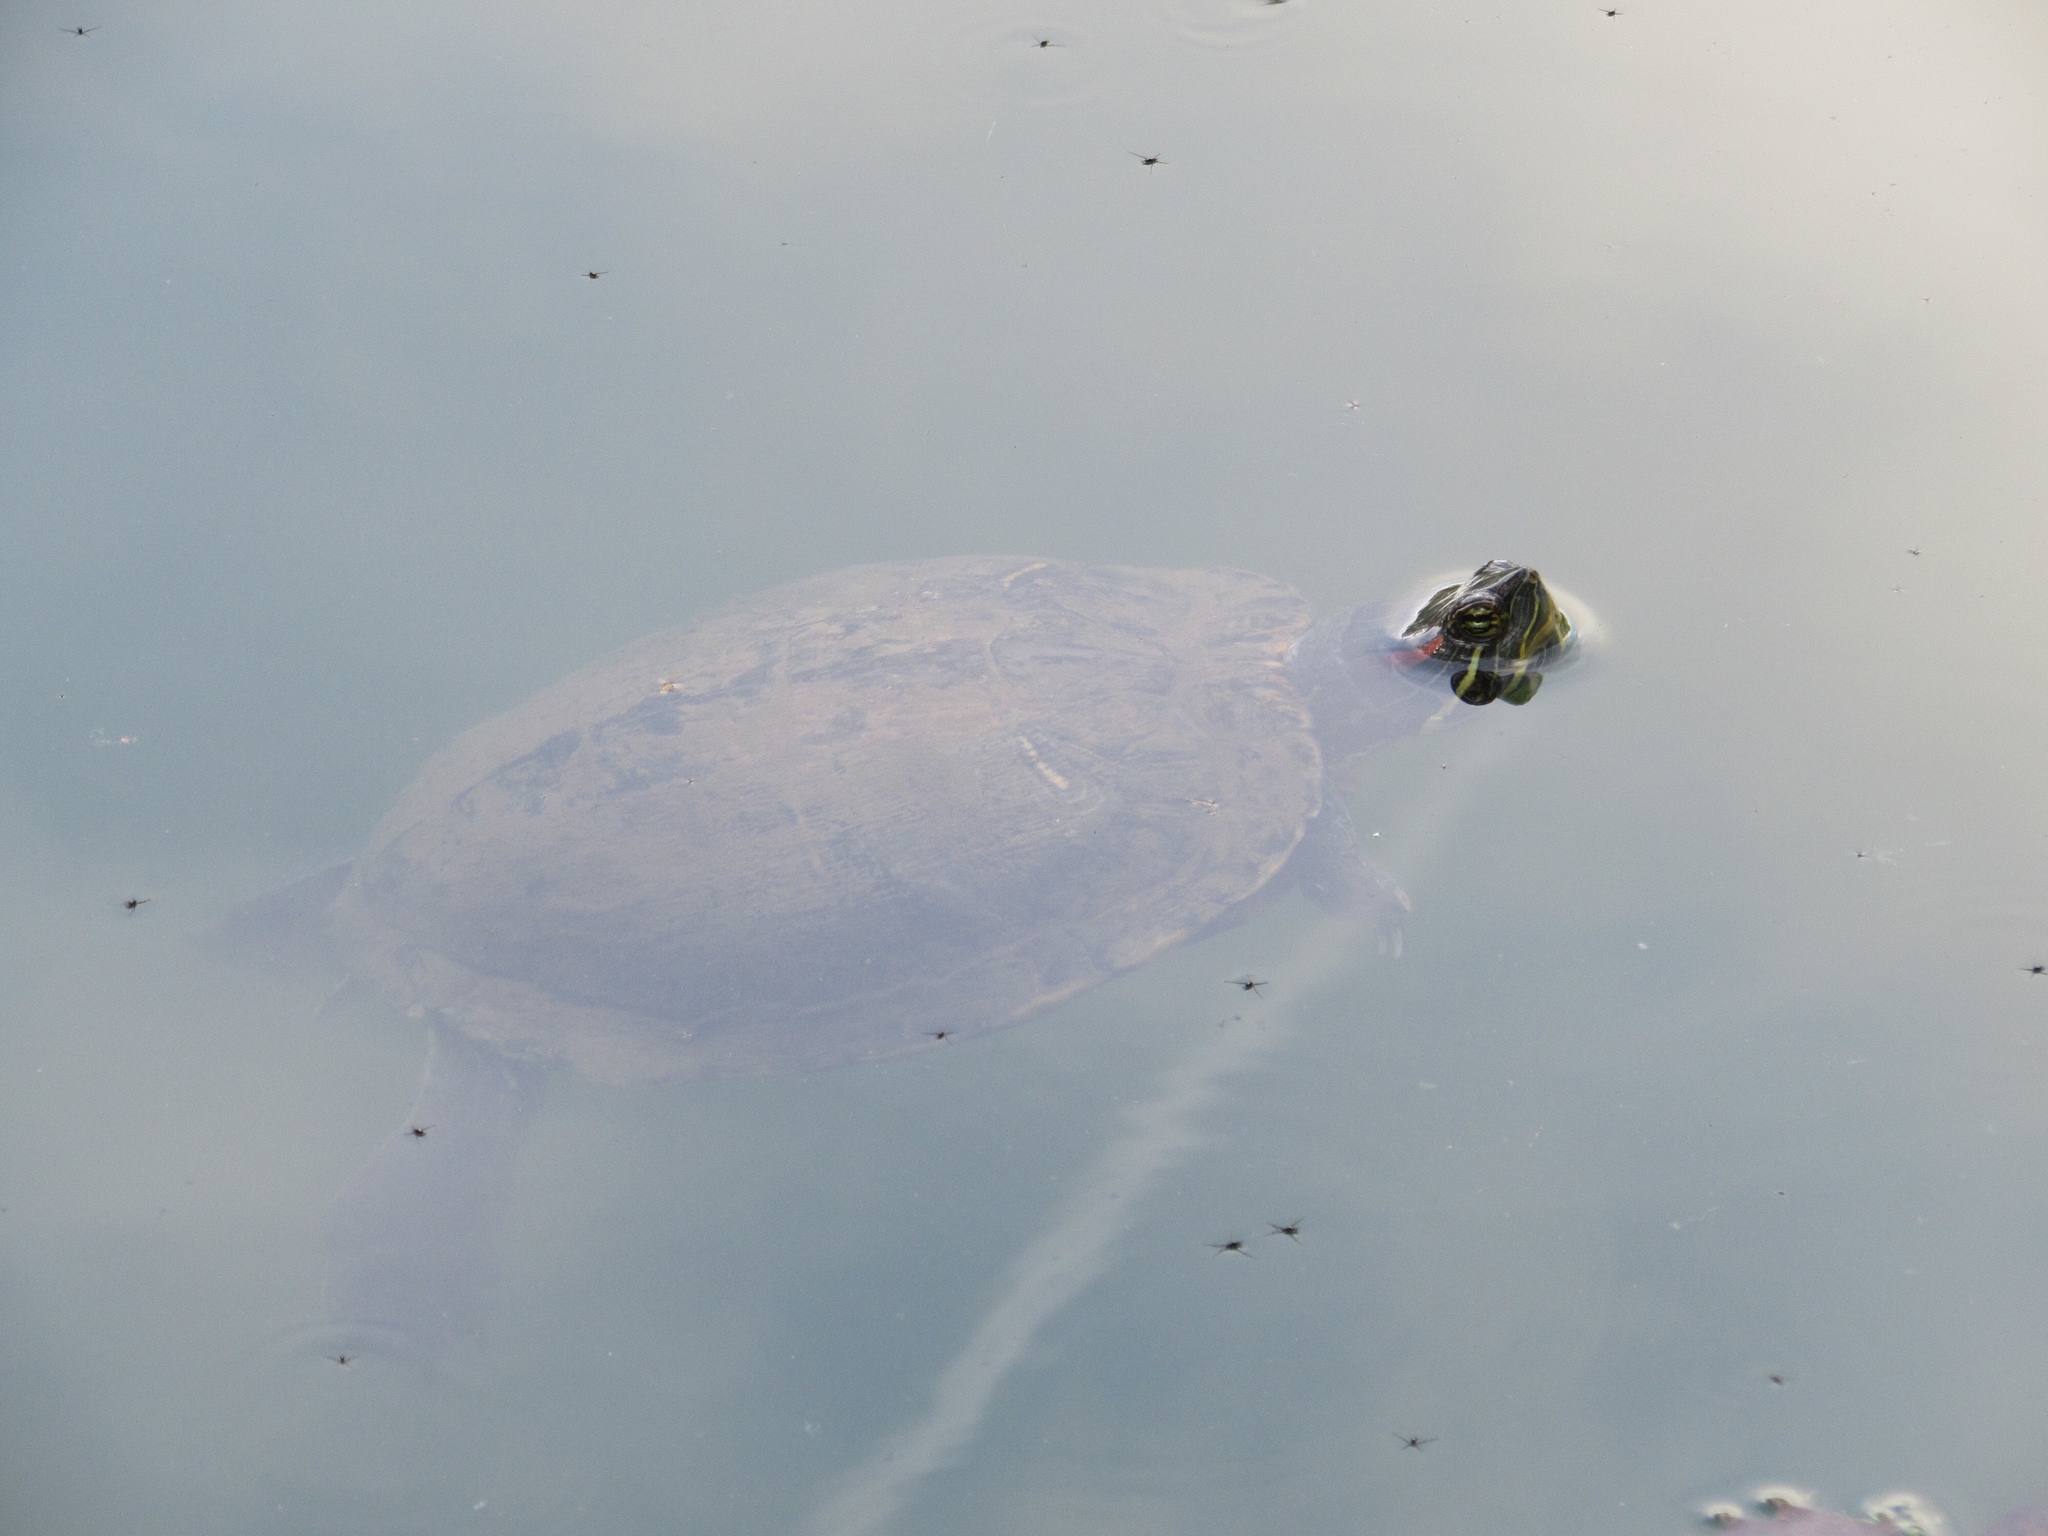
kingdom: Animalia
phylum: Chordata
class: Testudines
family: Emydidae
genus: Trachemys
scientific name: Trachemys scripta
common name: Slider
